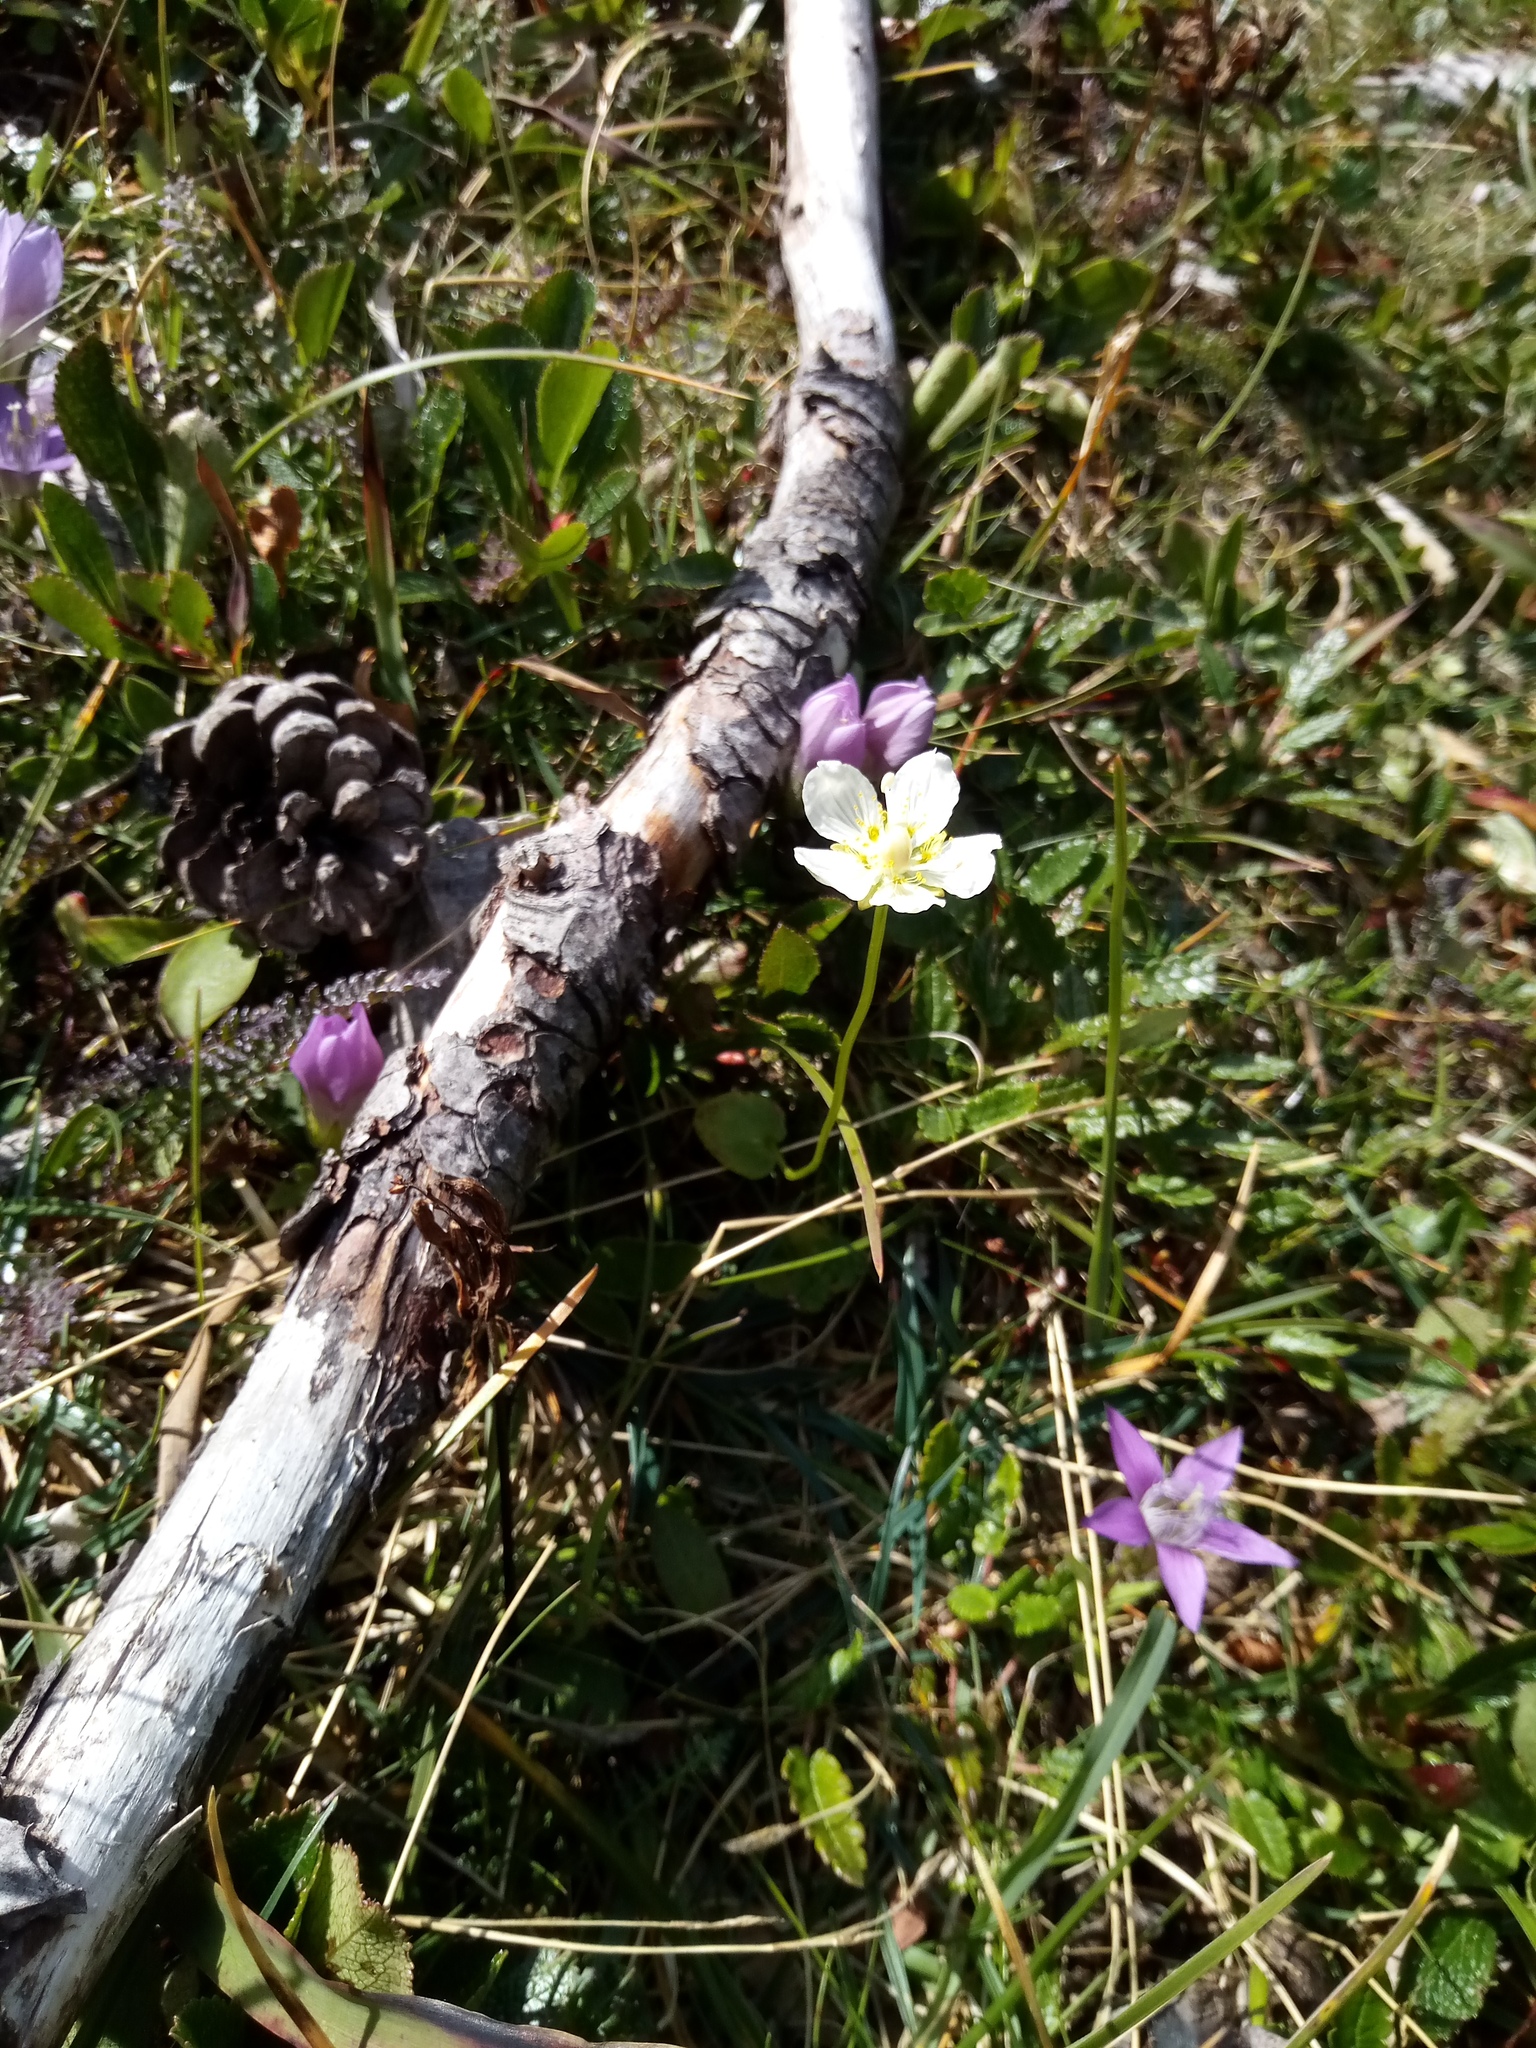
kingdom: Plantae
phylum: Tracheophyta
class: Magnoliopsida
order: Celastrales
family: Parnassiaceae
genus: Parnassia
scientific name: Parnassia palustris
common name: Grass-of-parnassus
